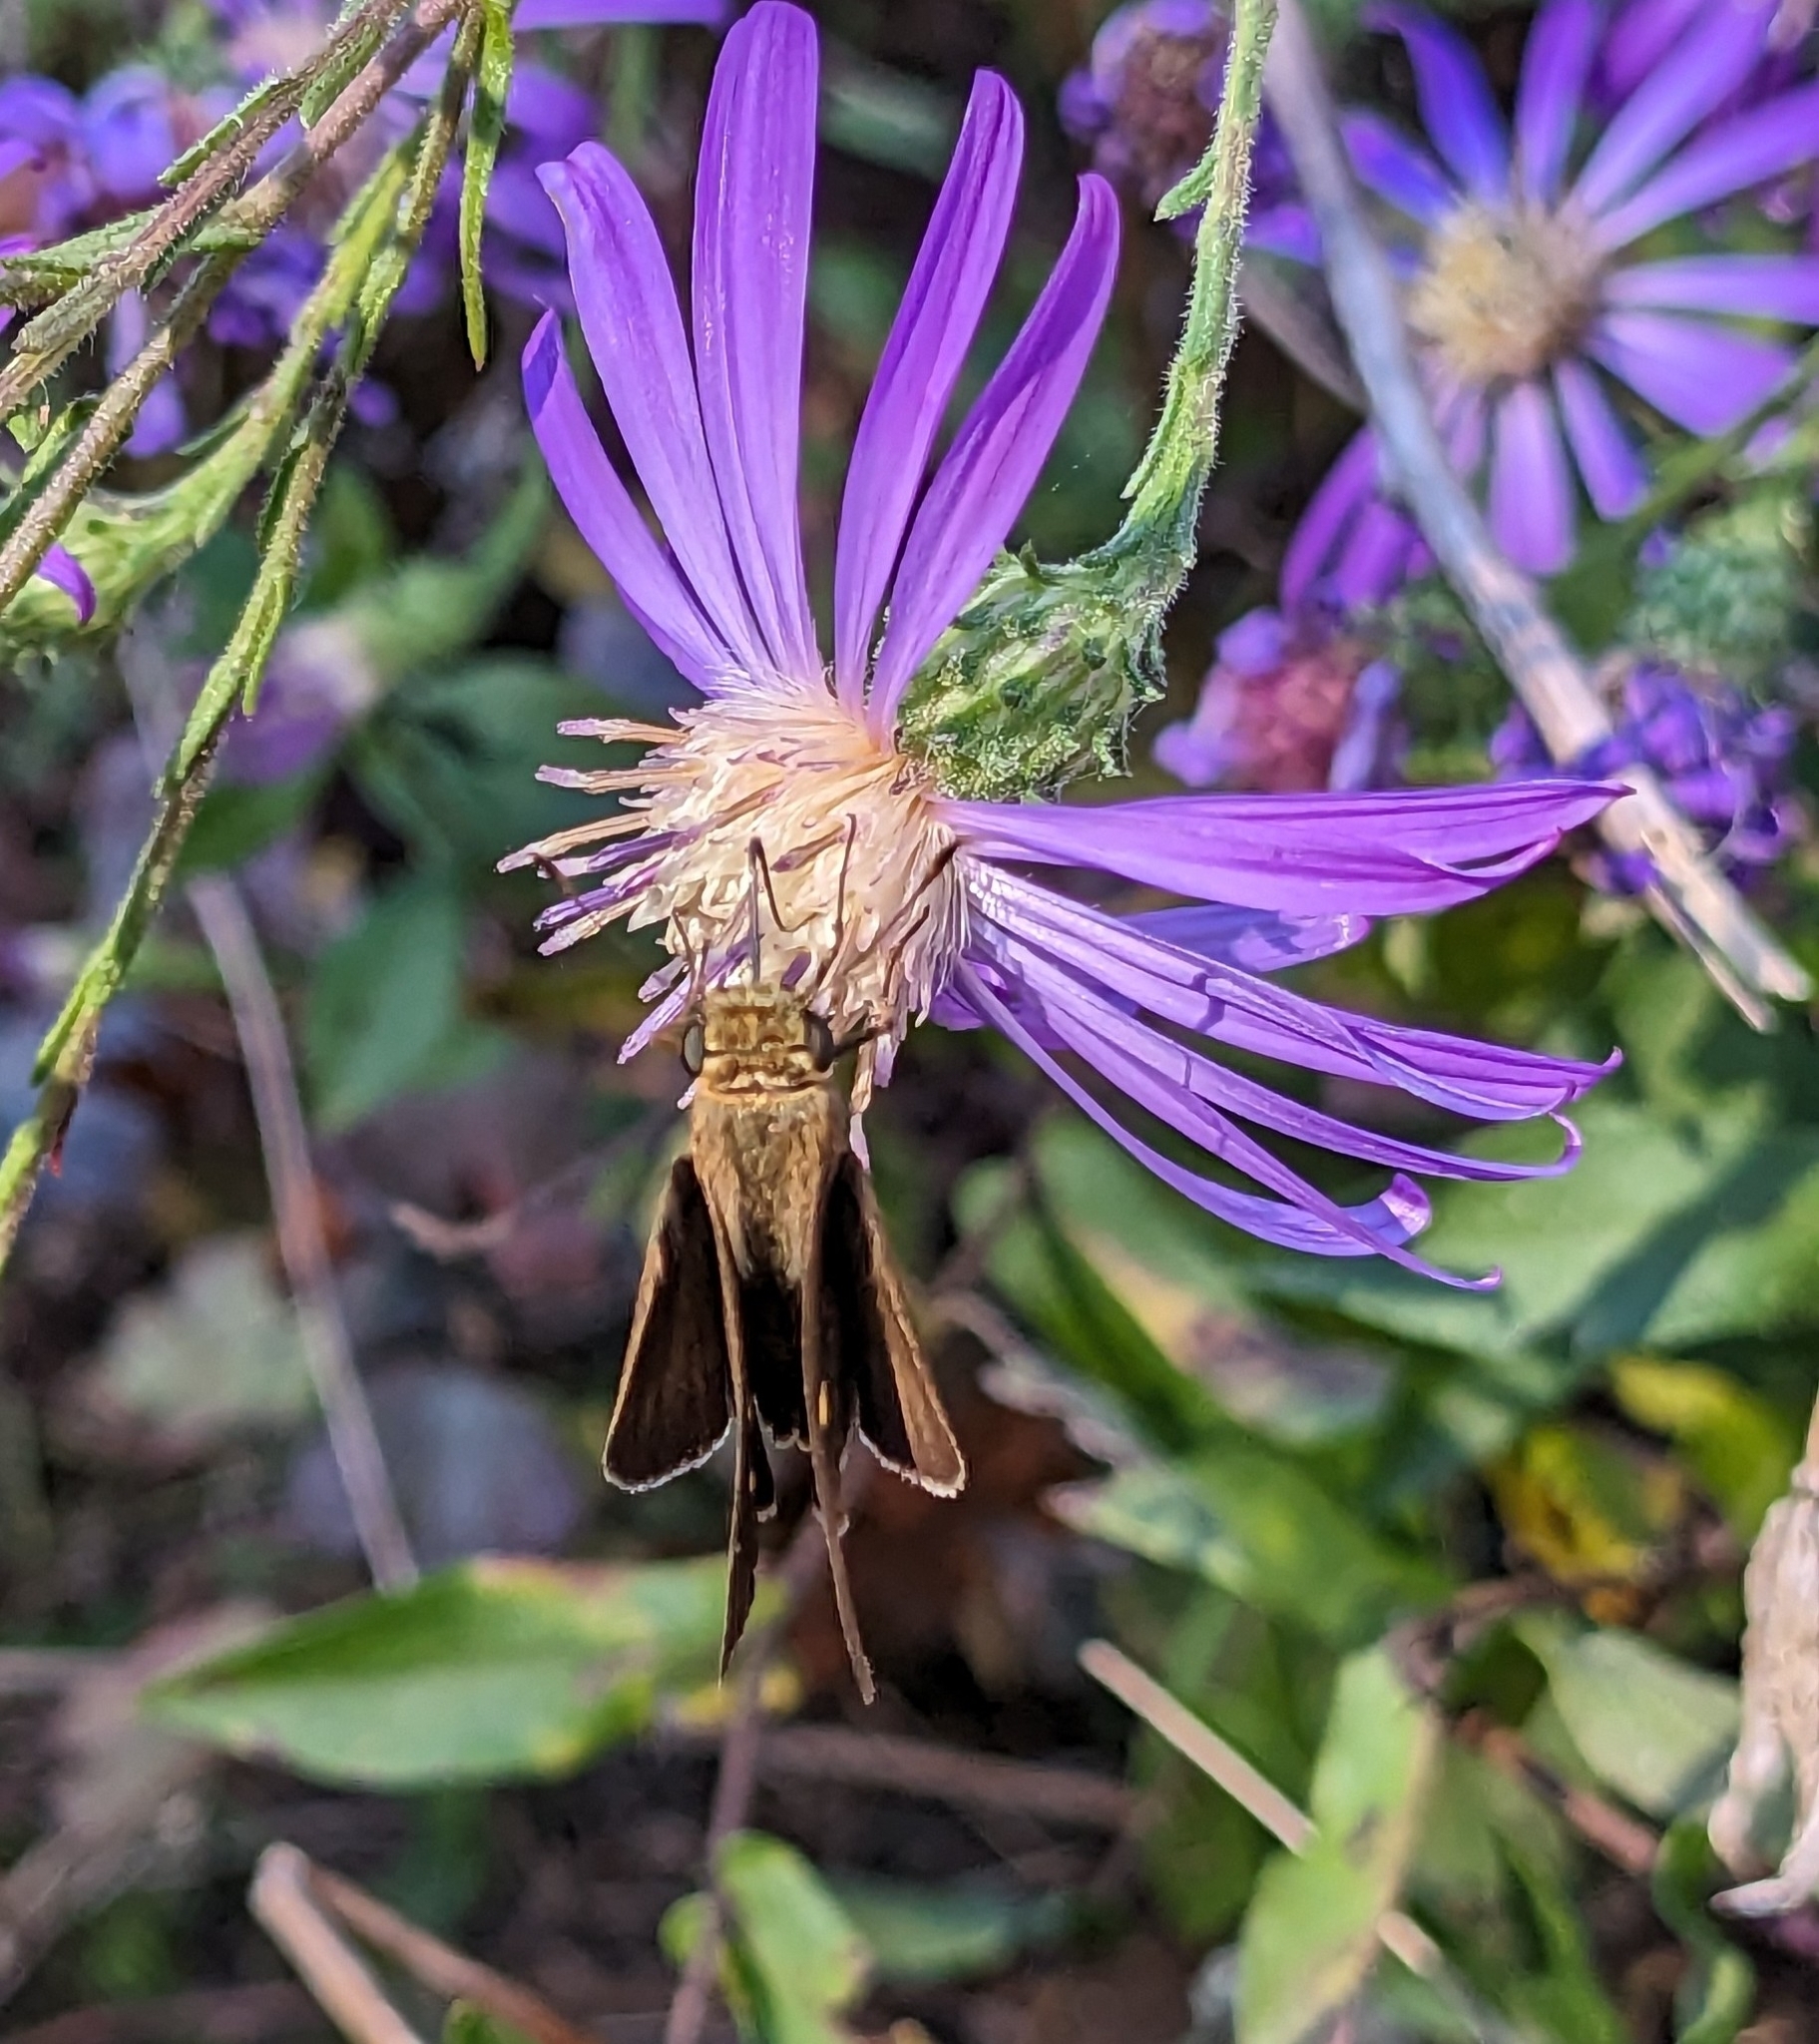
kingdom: Animalia
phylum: Arthropoda
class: Insecta
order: Lepidoptera
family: Hesperiidae
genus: Panoquina
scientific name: Panoquina ocola
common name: Ocola skipper
